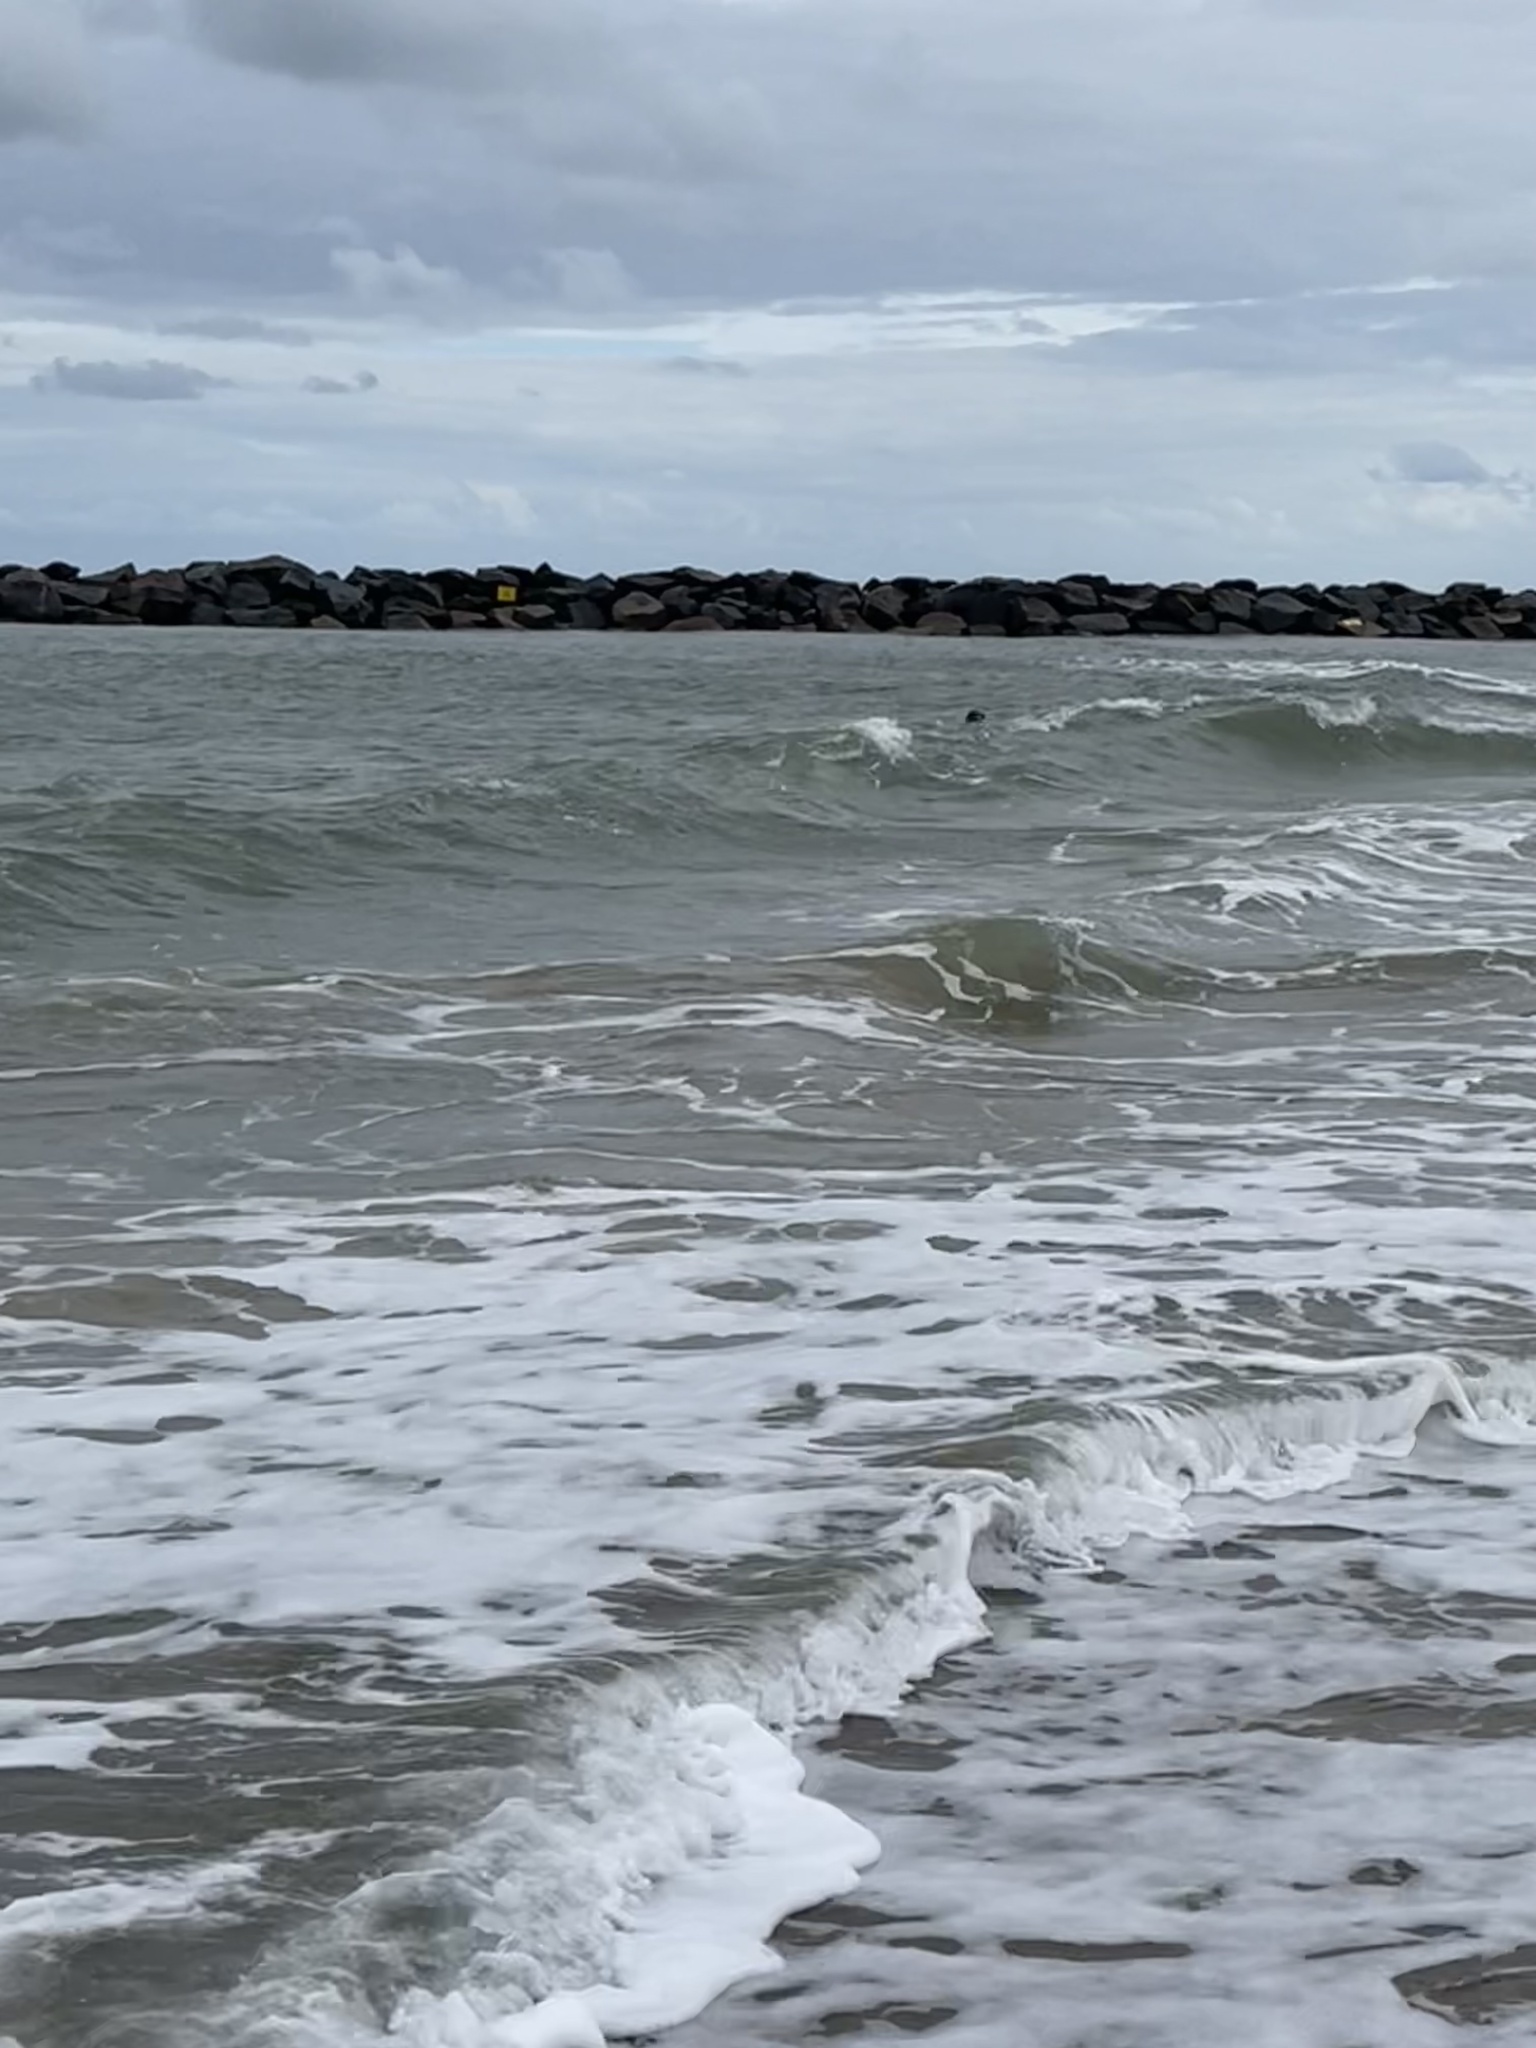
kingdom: Animalia
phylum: Chordata
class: Mammalia
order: Carnivora
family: Phocidae
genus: Halichoerus
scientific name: Halichoerus grypus
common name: Grey seal
